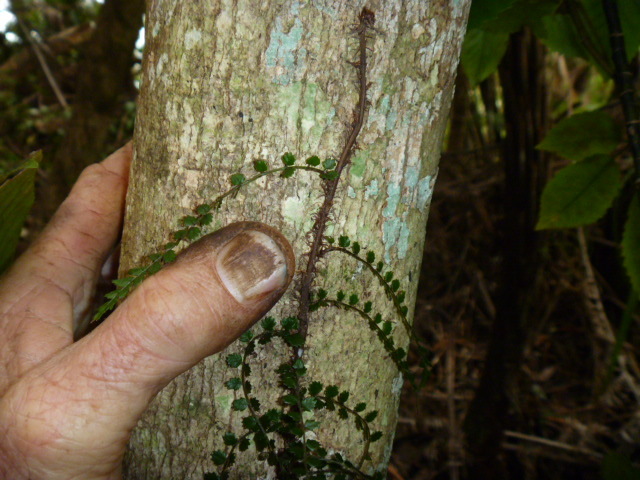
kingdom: Plantae
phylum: Tracheophyta
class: Polypodiopsida
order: Polypodiales
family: Blechnaceae
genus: Icarus
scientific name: Icarus filiformis
